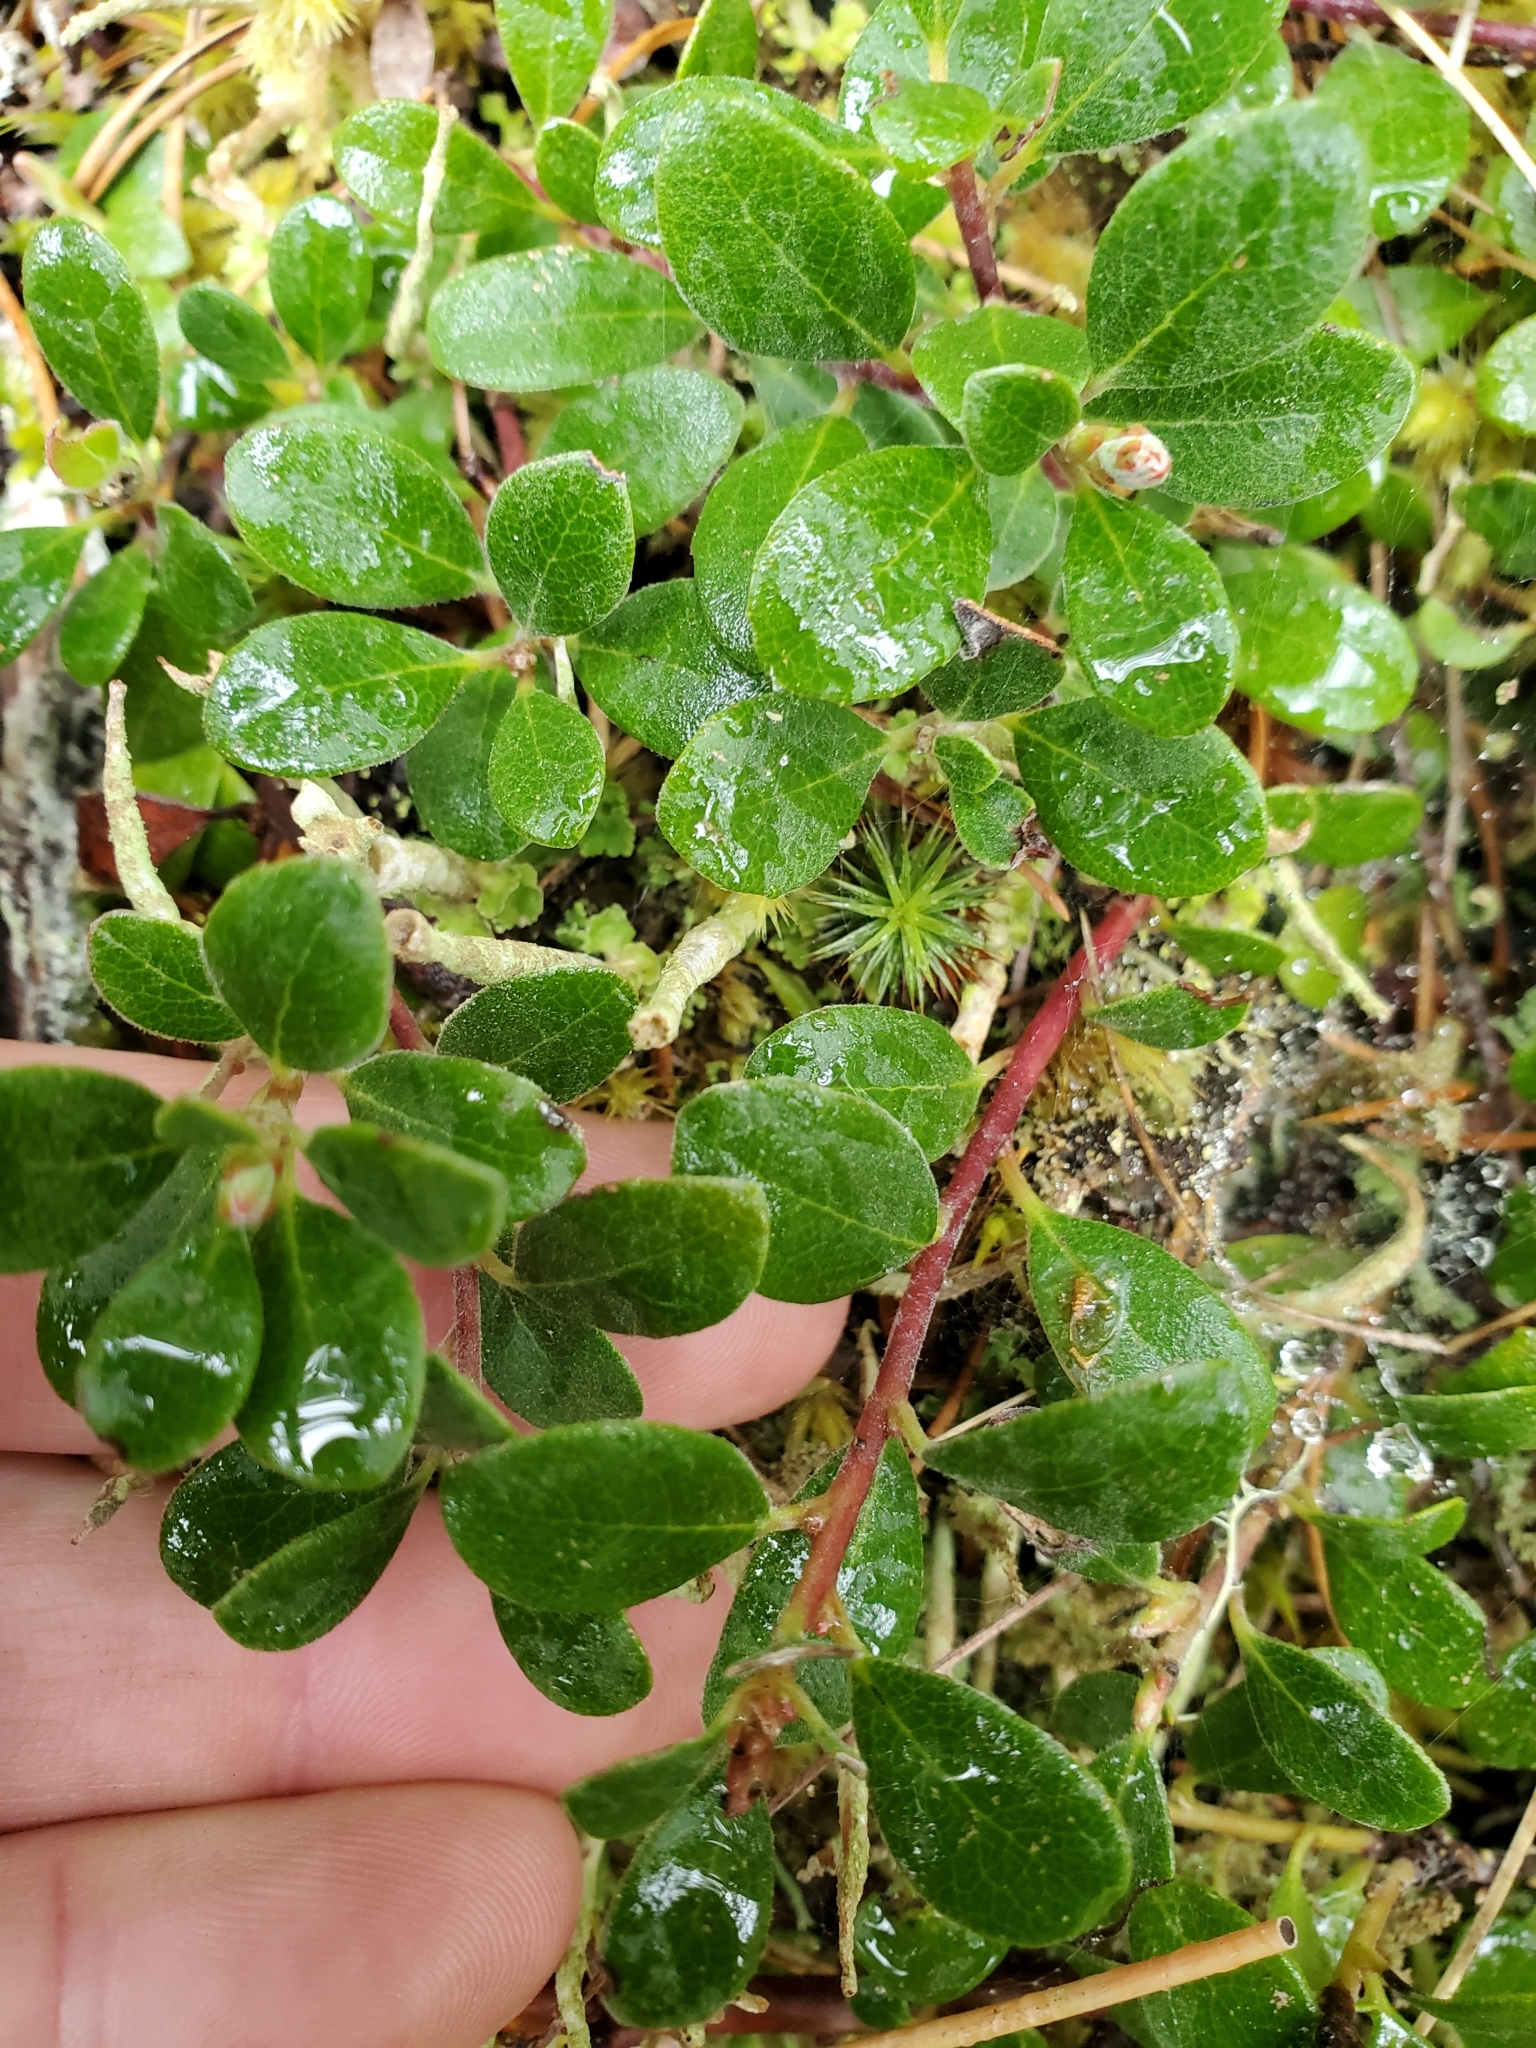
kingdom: Plantae
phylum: Tracheophyta
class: Magnoliopsida
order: Ericales
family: Ericaceae
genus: Arctostaphylos
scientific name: Arctostaphylos uva-ursi
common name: Bearberry
